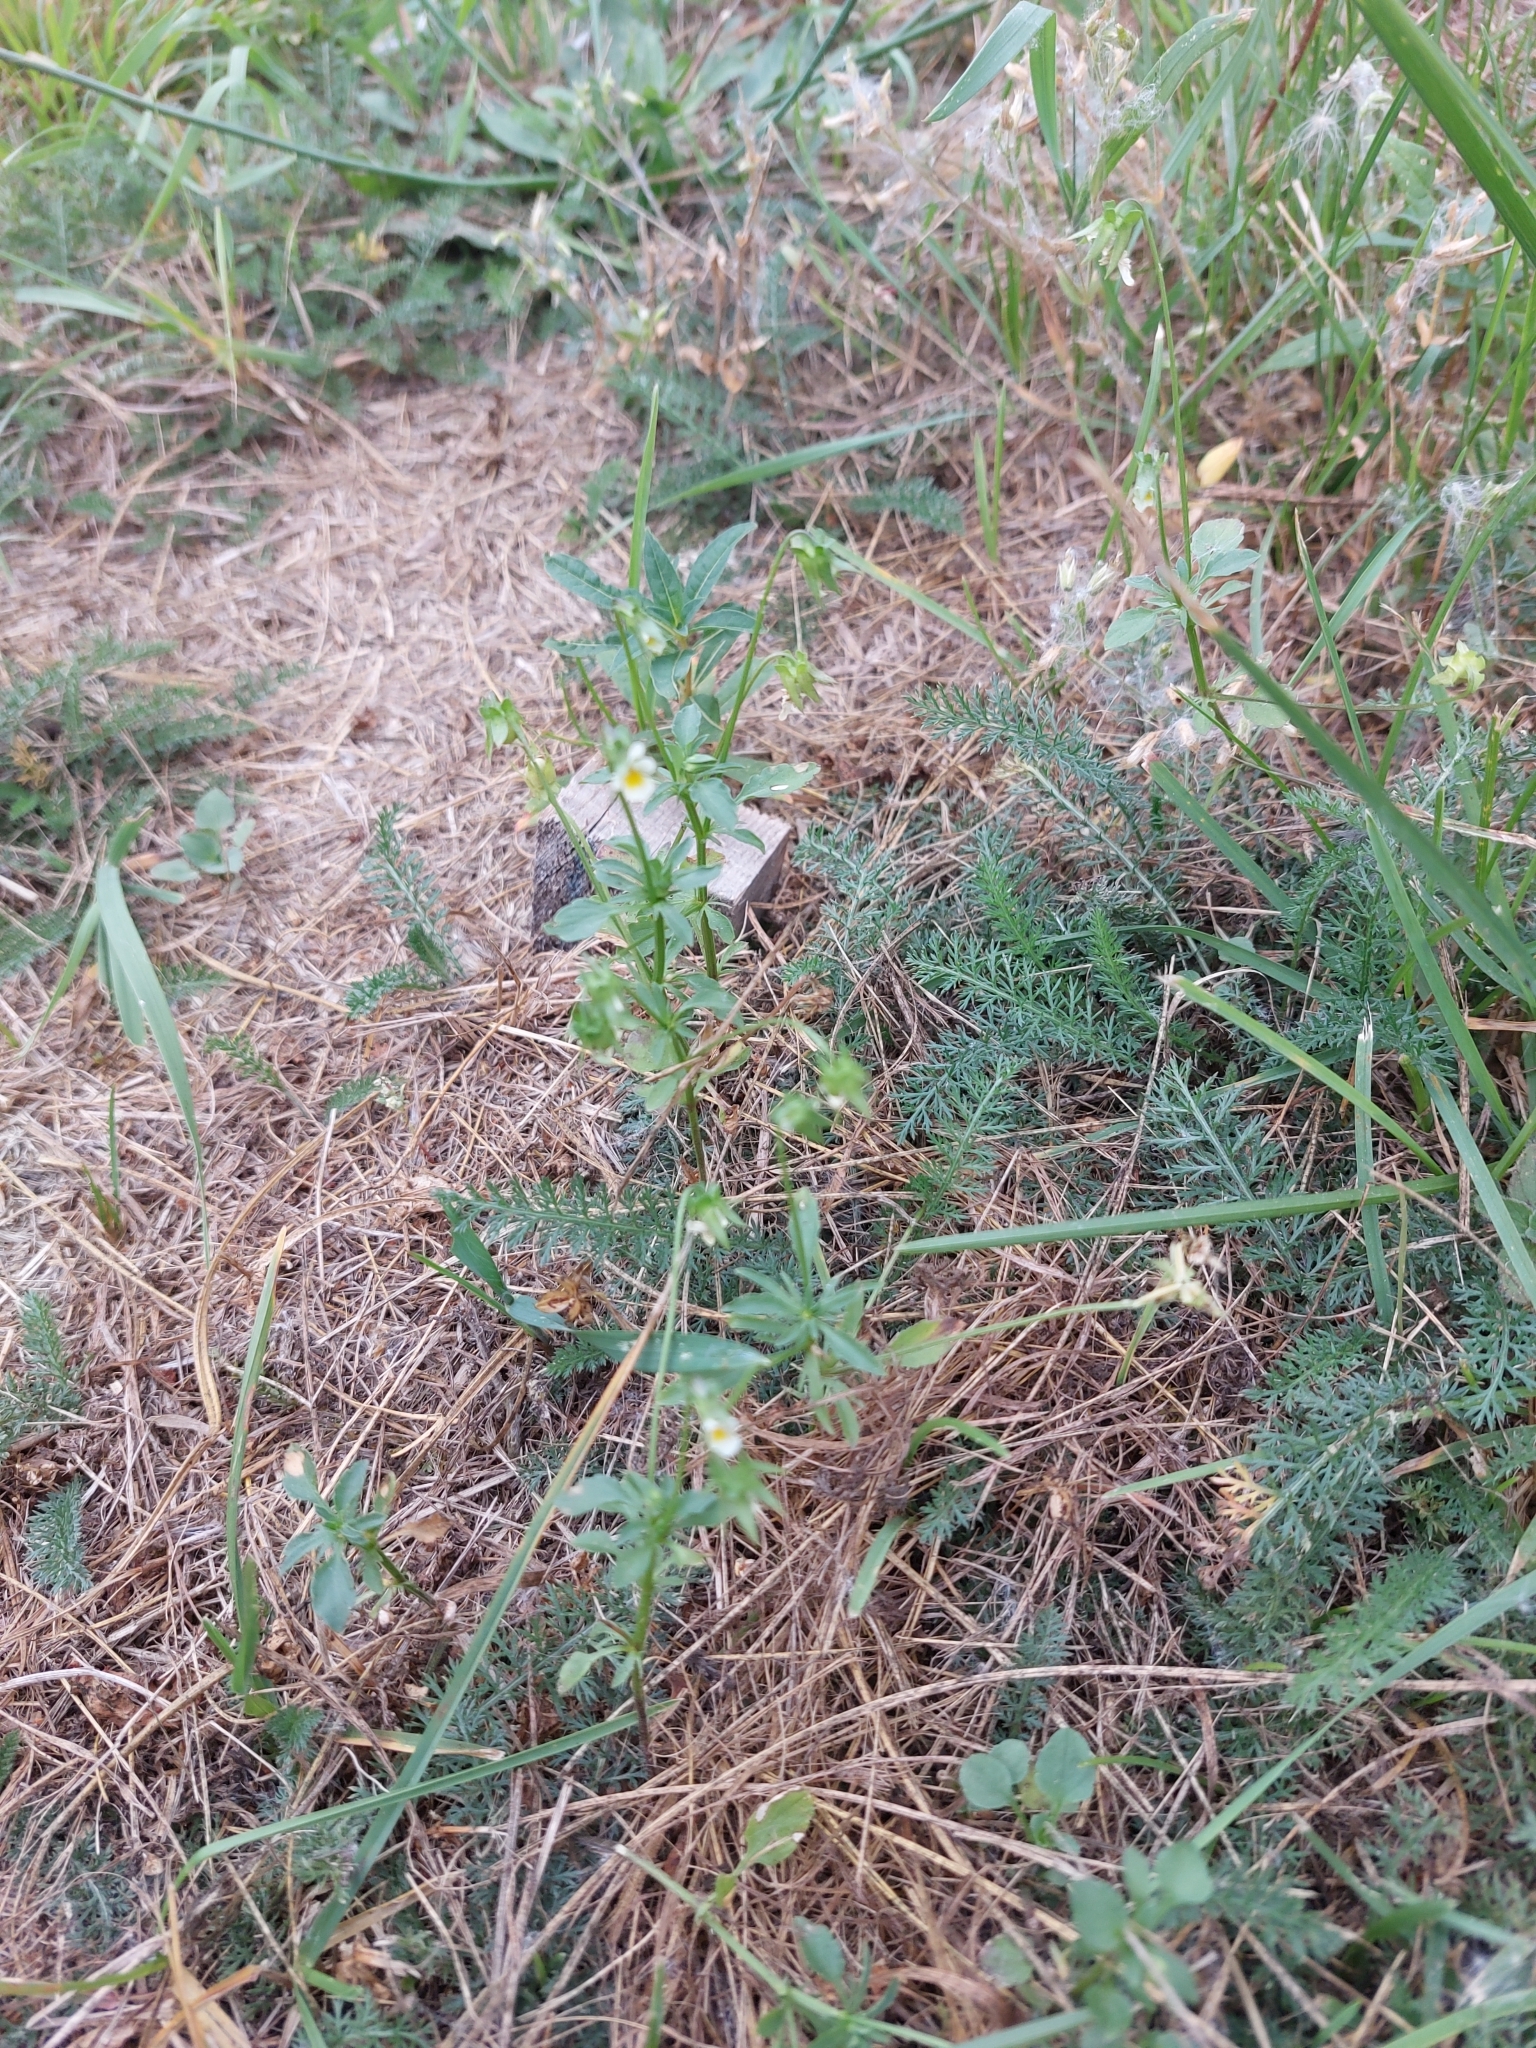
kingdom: Plantae
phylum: Tracheophyta
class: Magnoliopsida
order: Malpighiales
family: Violaceae
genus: Viola
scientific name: Viola arvensis
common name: Field pansy
